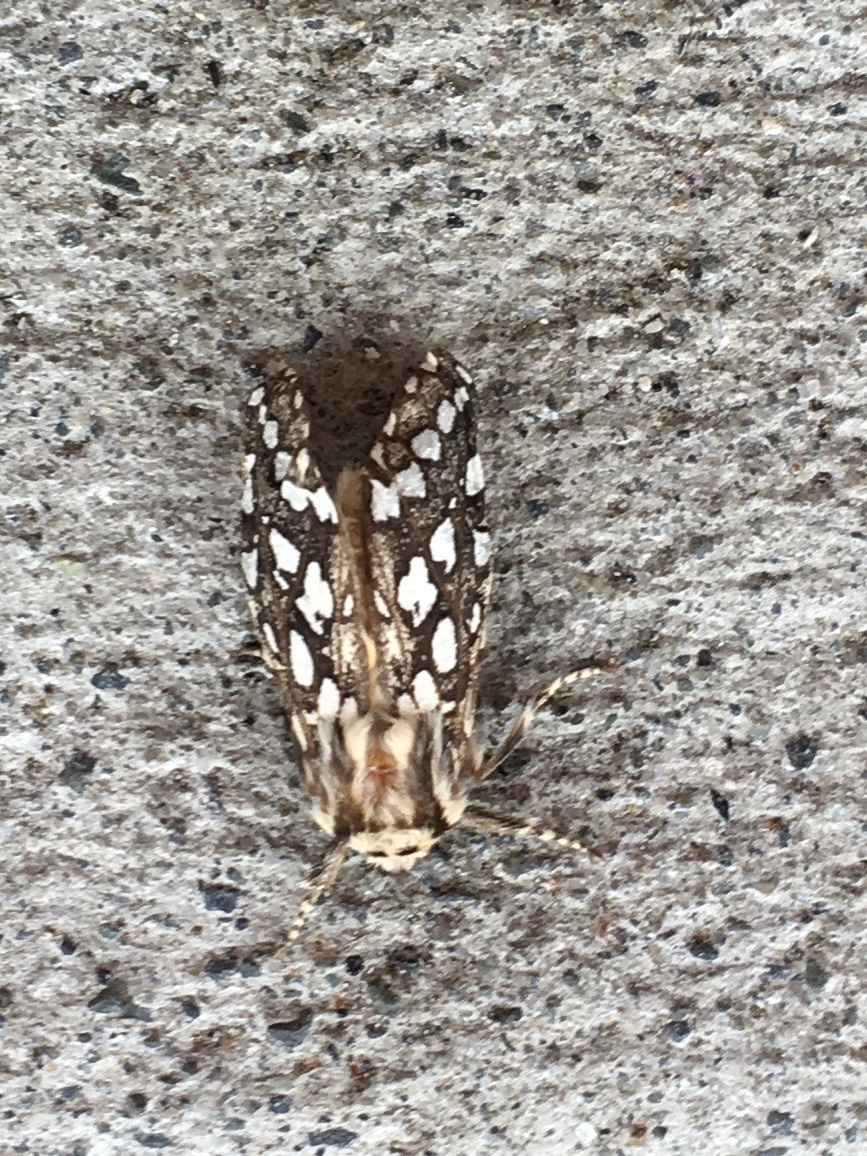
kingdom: Animalia
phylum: Arthropoda
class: Insecta
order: Lepidoptera
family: Erebidae
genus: Lophocampa
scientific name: Lophocampa argentata
